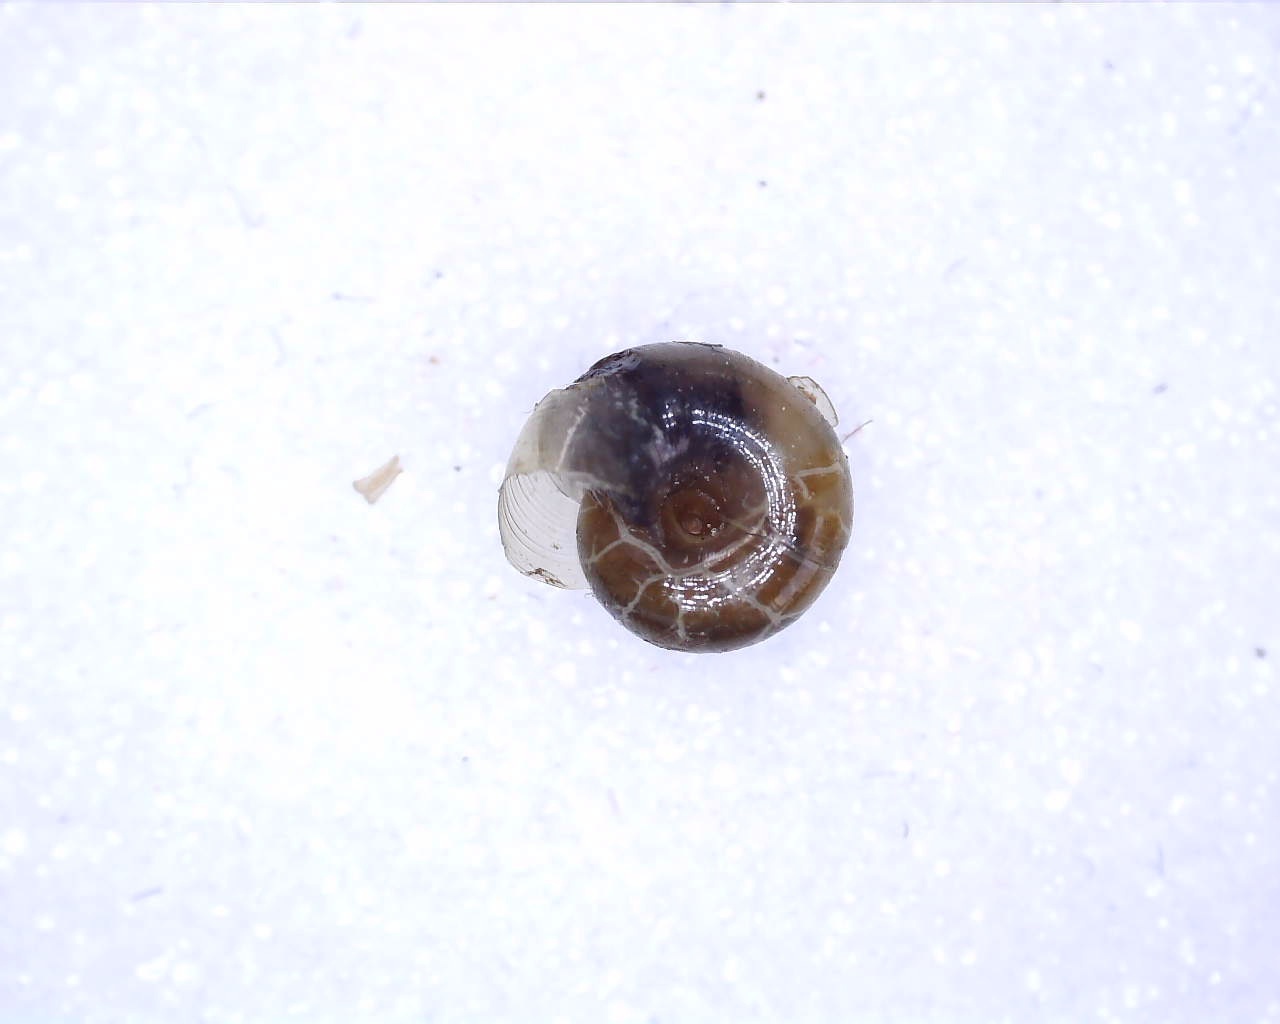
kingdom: Animalia
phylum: Mollusca
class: Gastropoda
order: Stylommatophora
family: Gastrodontidae
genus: Perpolita
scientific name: Perpolita petronella
